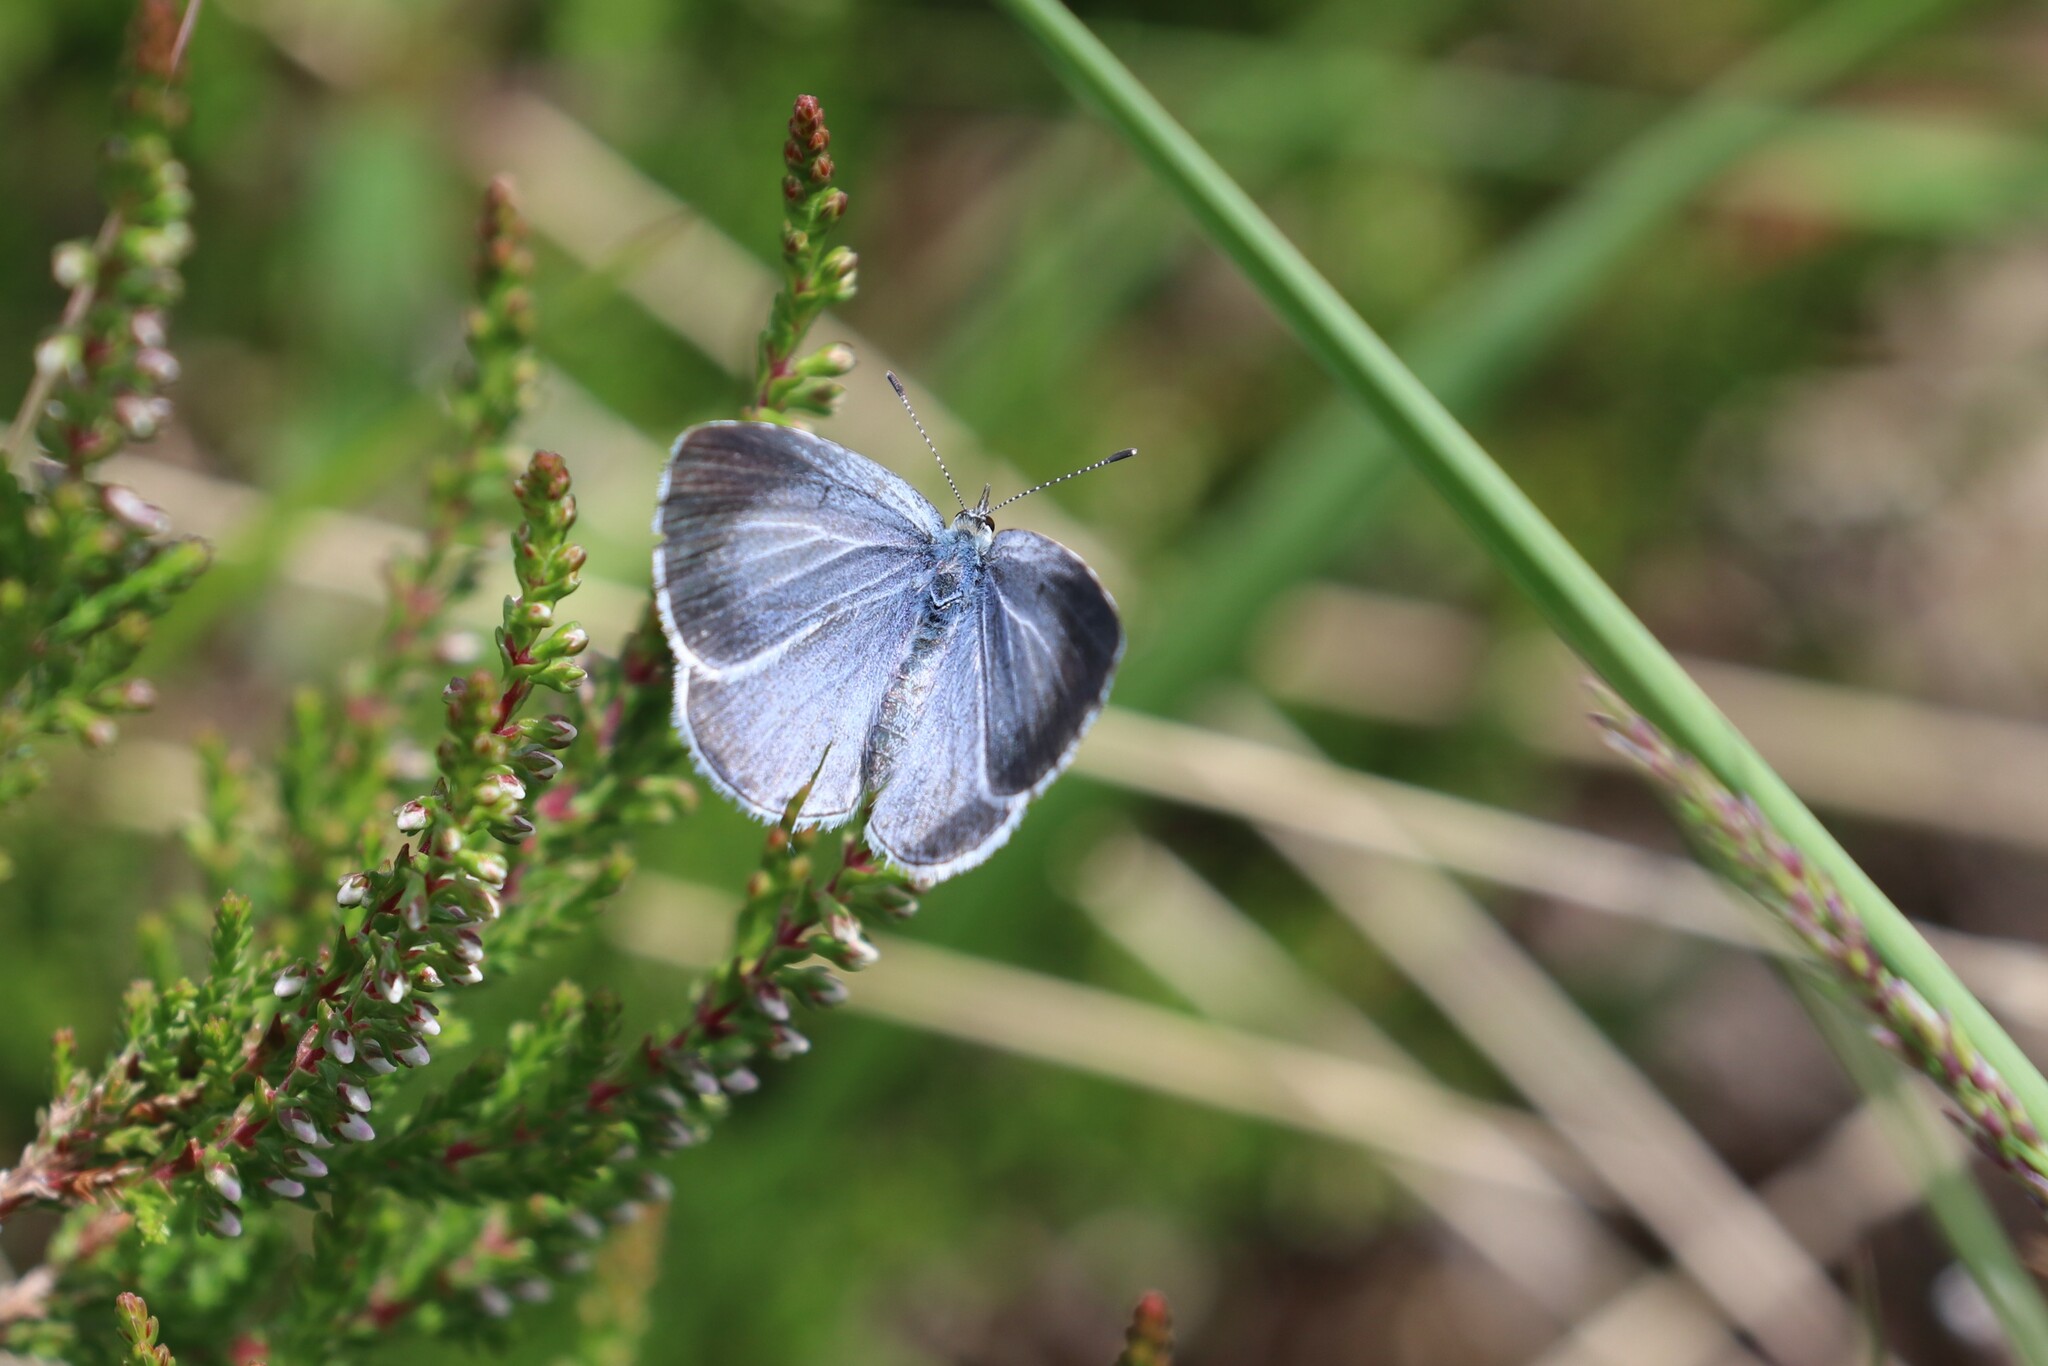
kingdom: Animalia
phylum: Arthropoda
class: Insecta
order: Lepidoptera
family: Lycaenidae
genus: Celastrina
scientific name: Celastrina argiolus
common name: Holly blue
